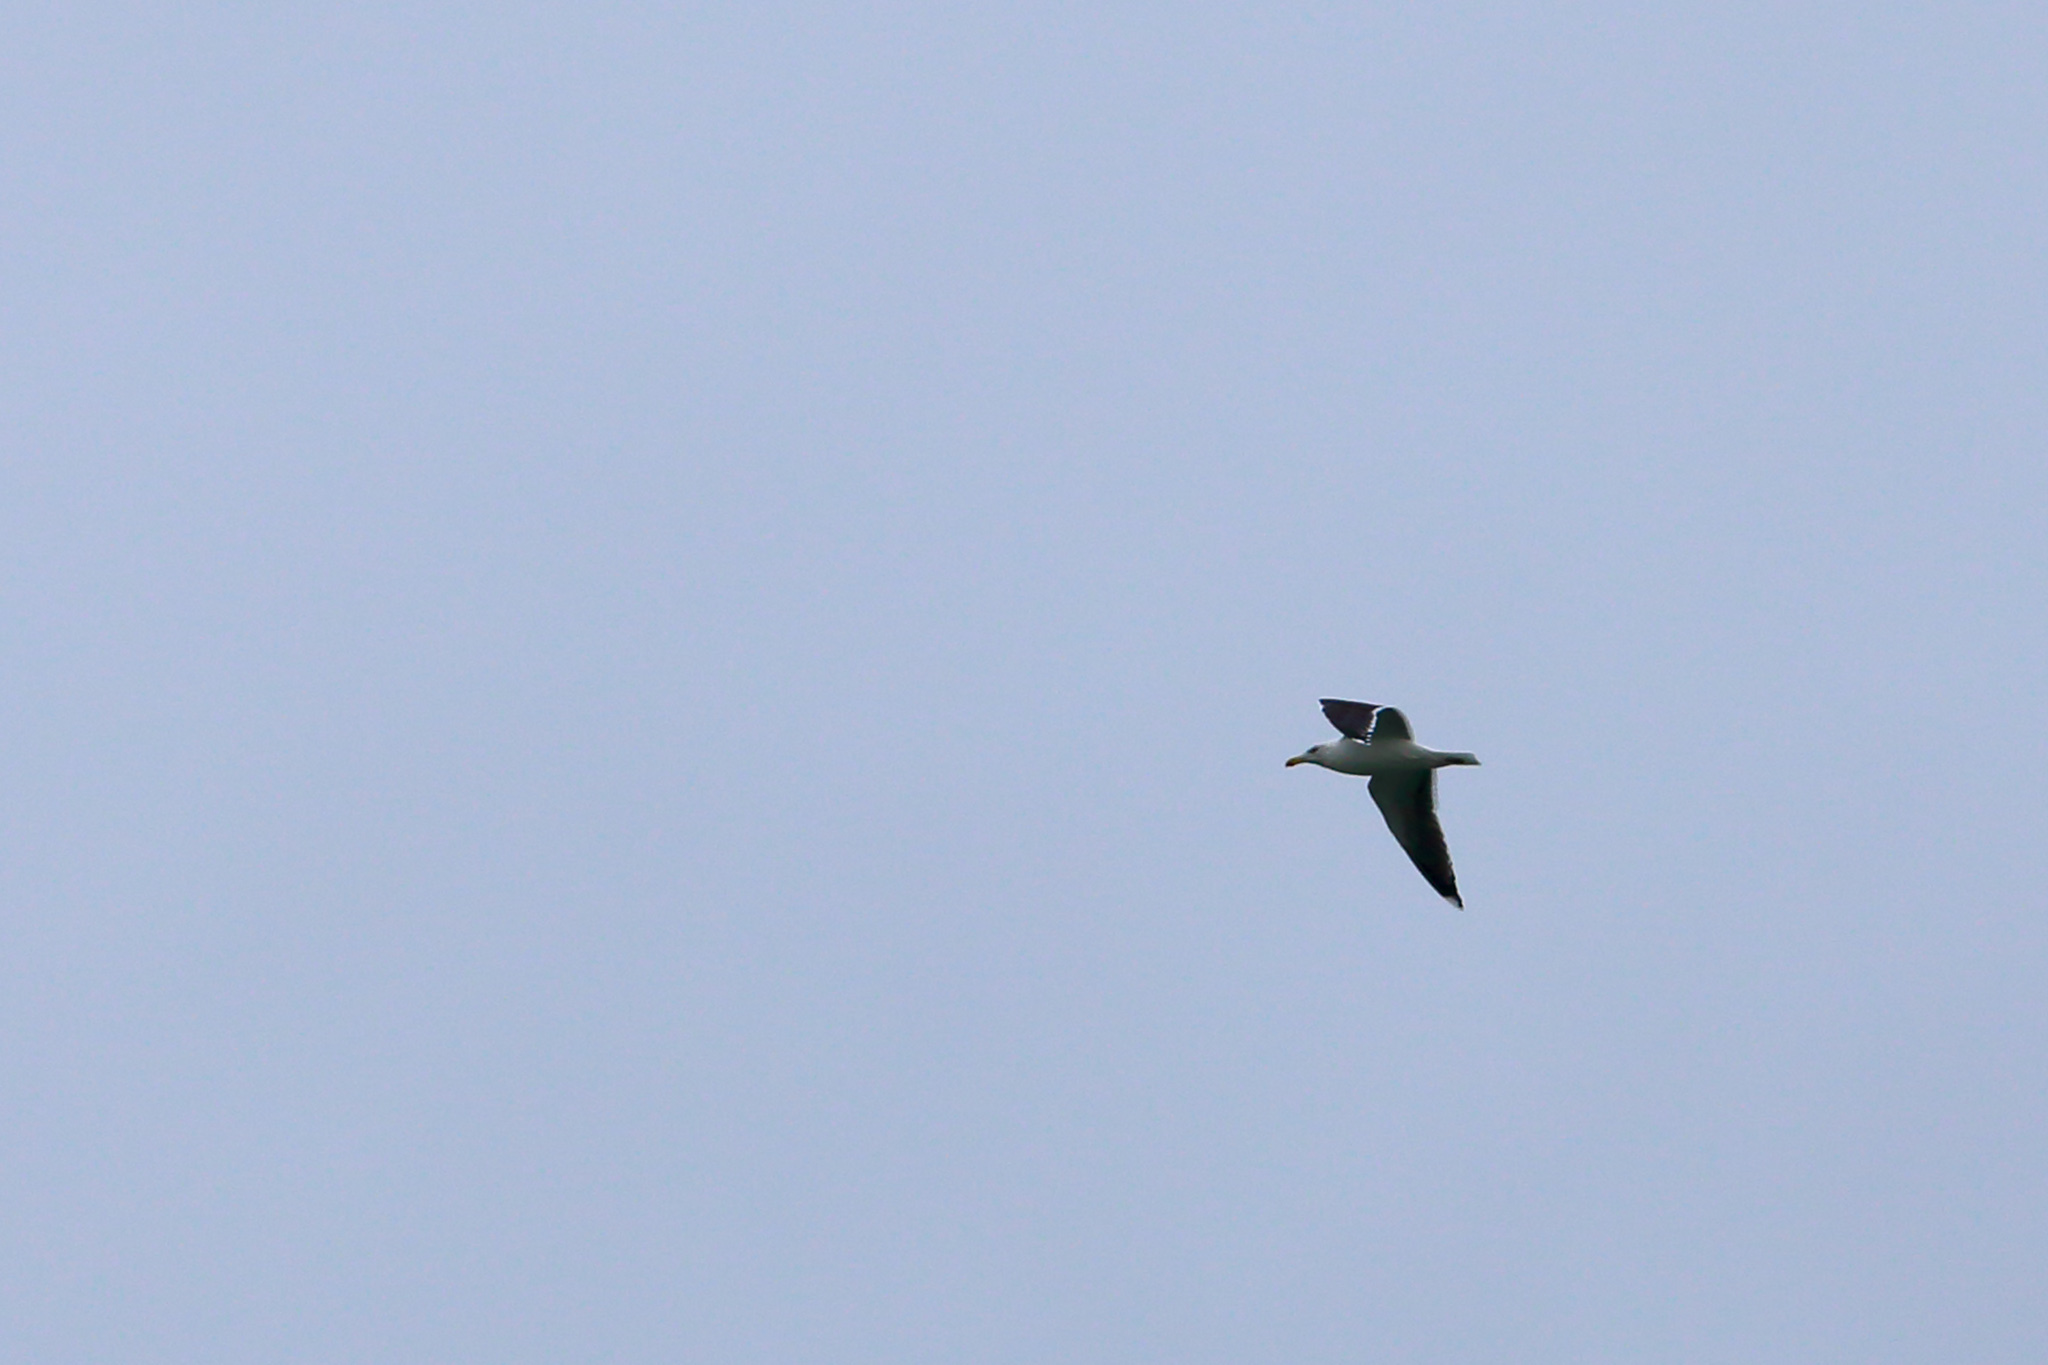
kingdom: Animalia
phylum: Chordata
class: Aves
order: Charadriiformes
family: Laridae
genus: Larus
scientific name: Larus marinus
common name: Great black-backed gull
